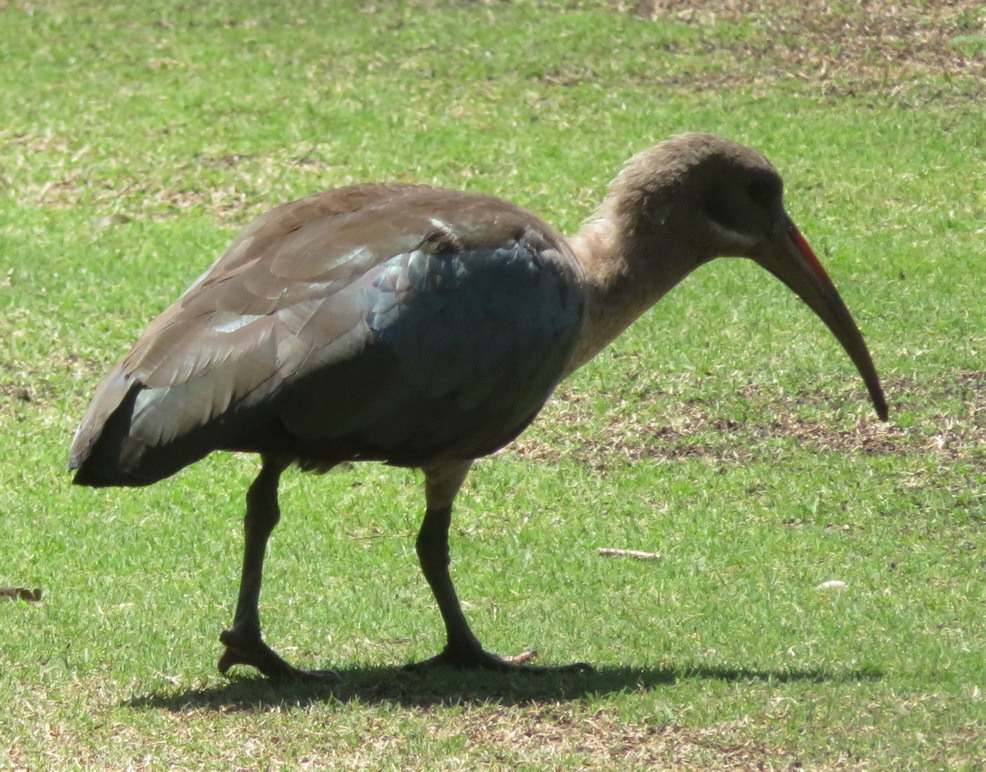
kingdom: Animalia
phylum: Chordata
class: Aves
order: Pelecaniformes
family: Threskiornithidae
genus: Bostrychia
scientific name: Bostrychia hagedash
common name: Hadada ibis
